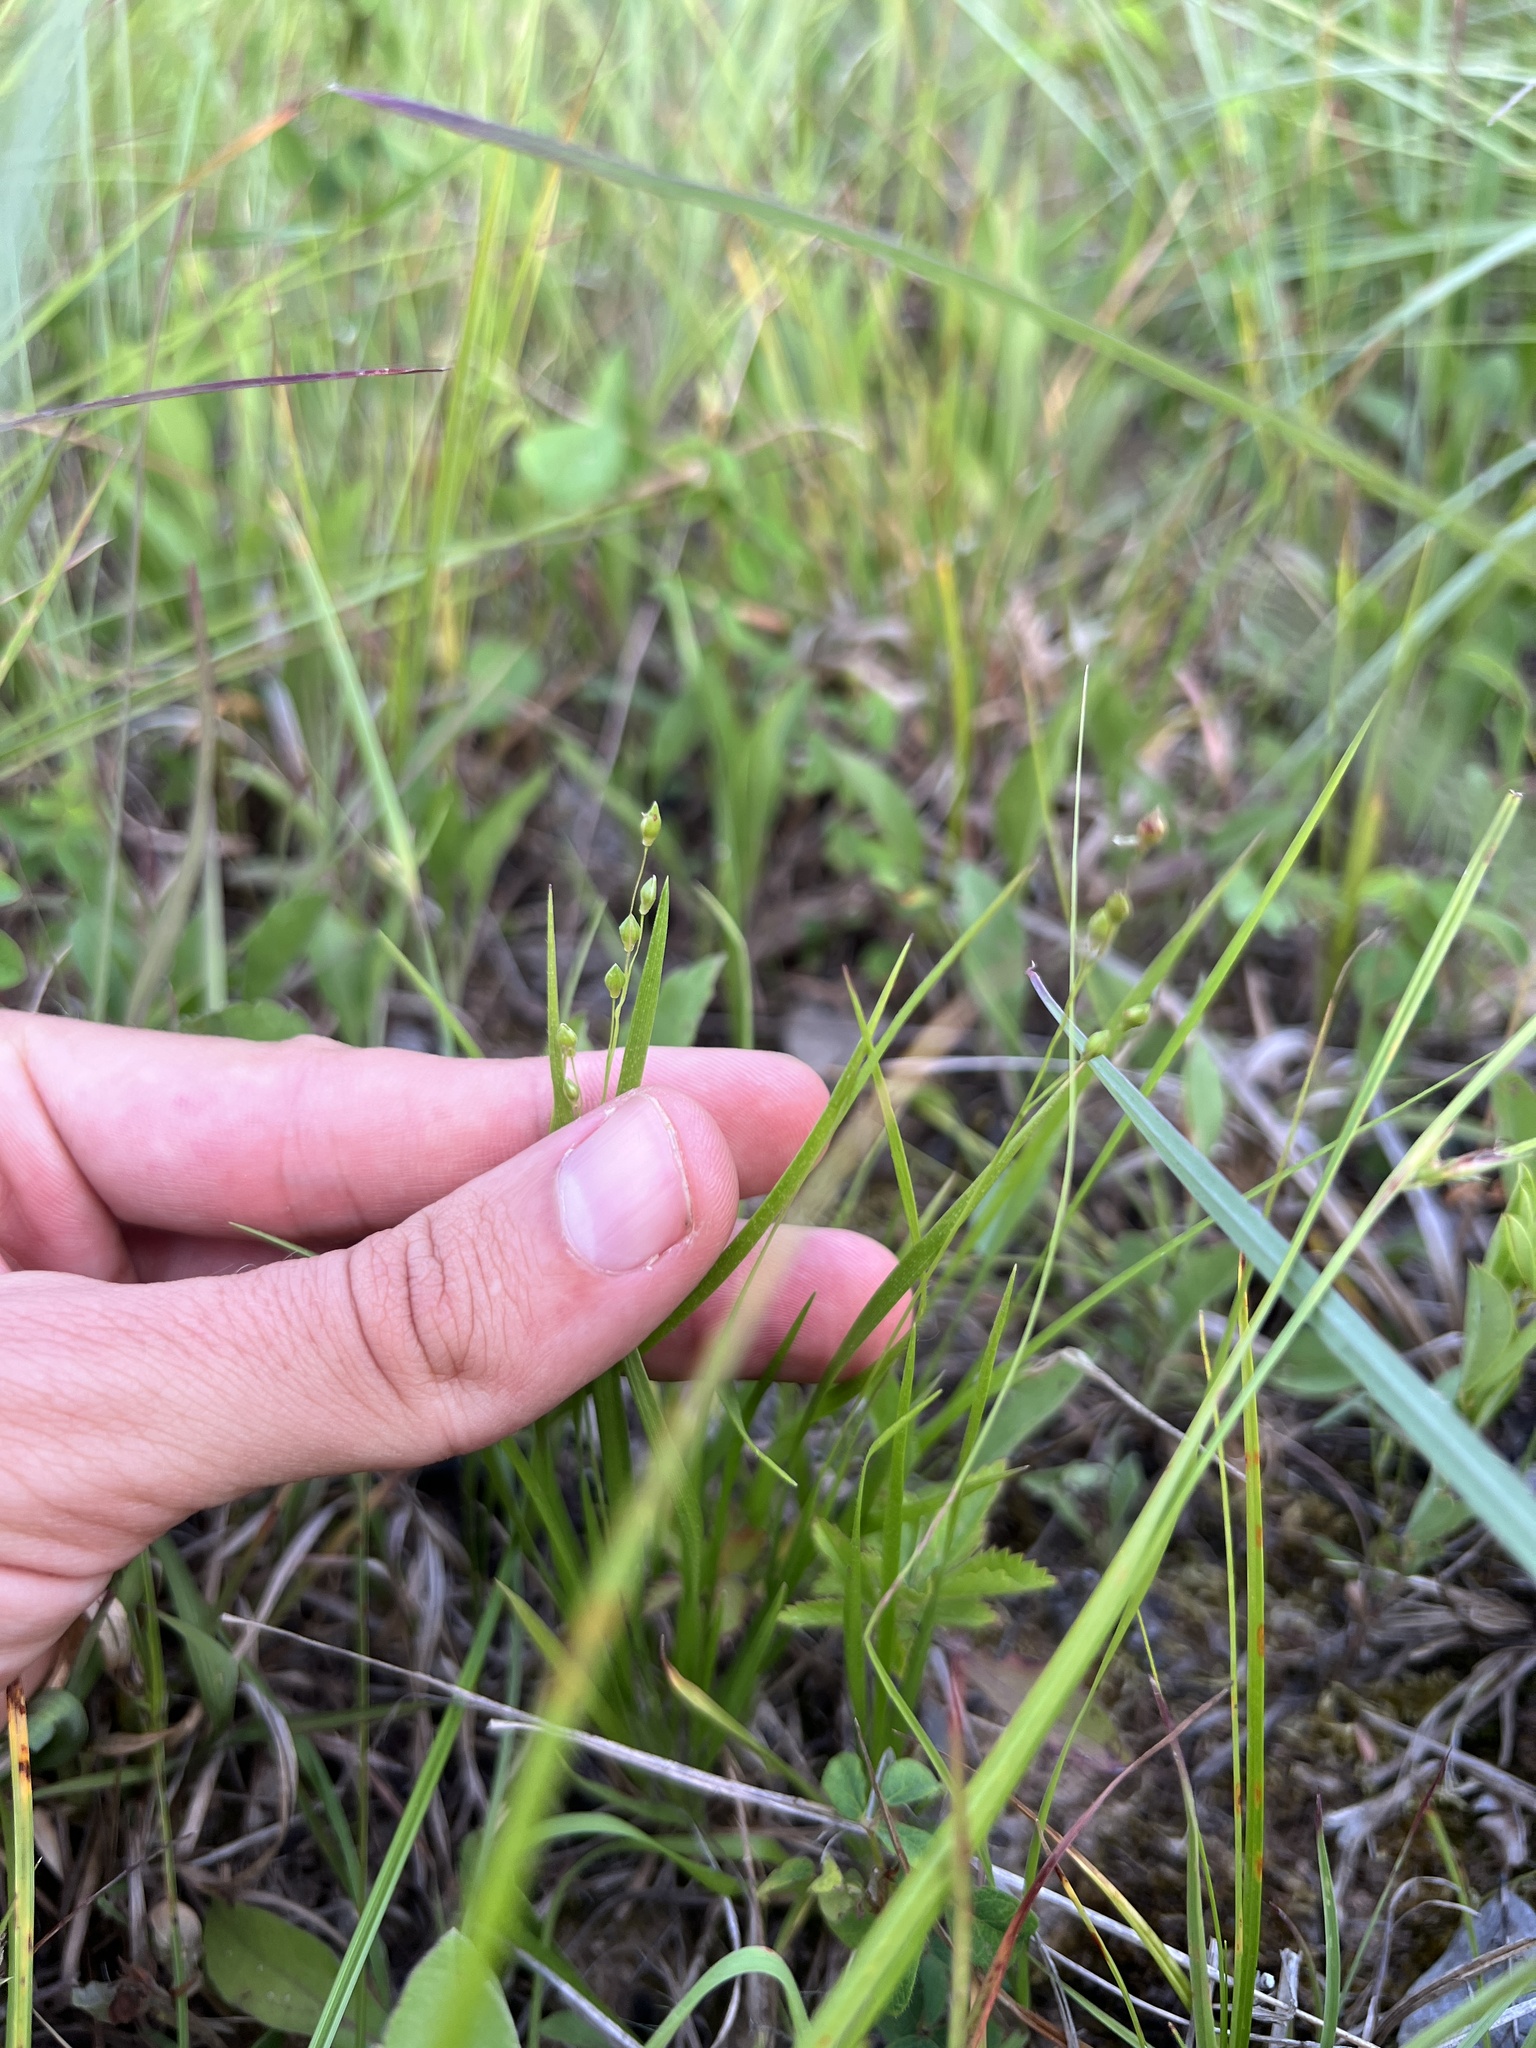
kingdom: Plantae
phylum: Tracheophyta
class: Liliopsida
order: Poales
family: Poaceae
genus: Dichanthelium
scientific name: Dichanthelium depauperatum
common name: Depauperate panicgrass
